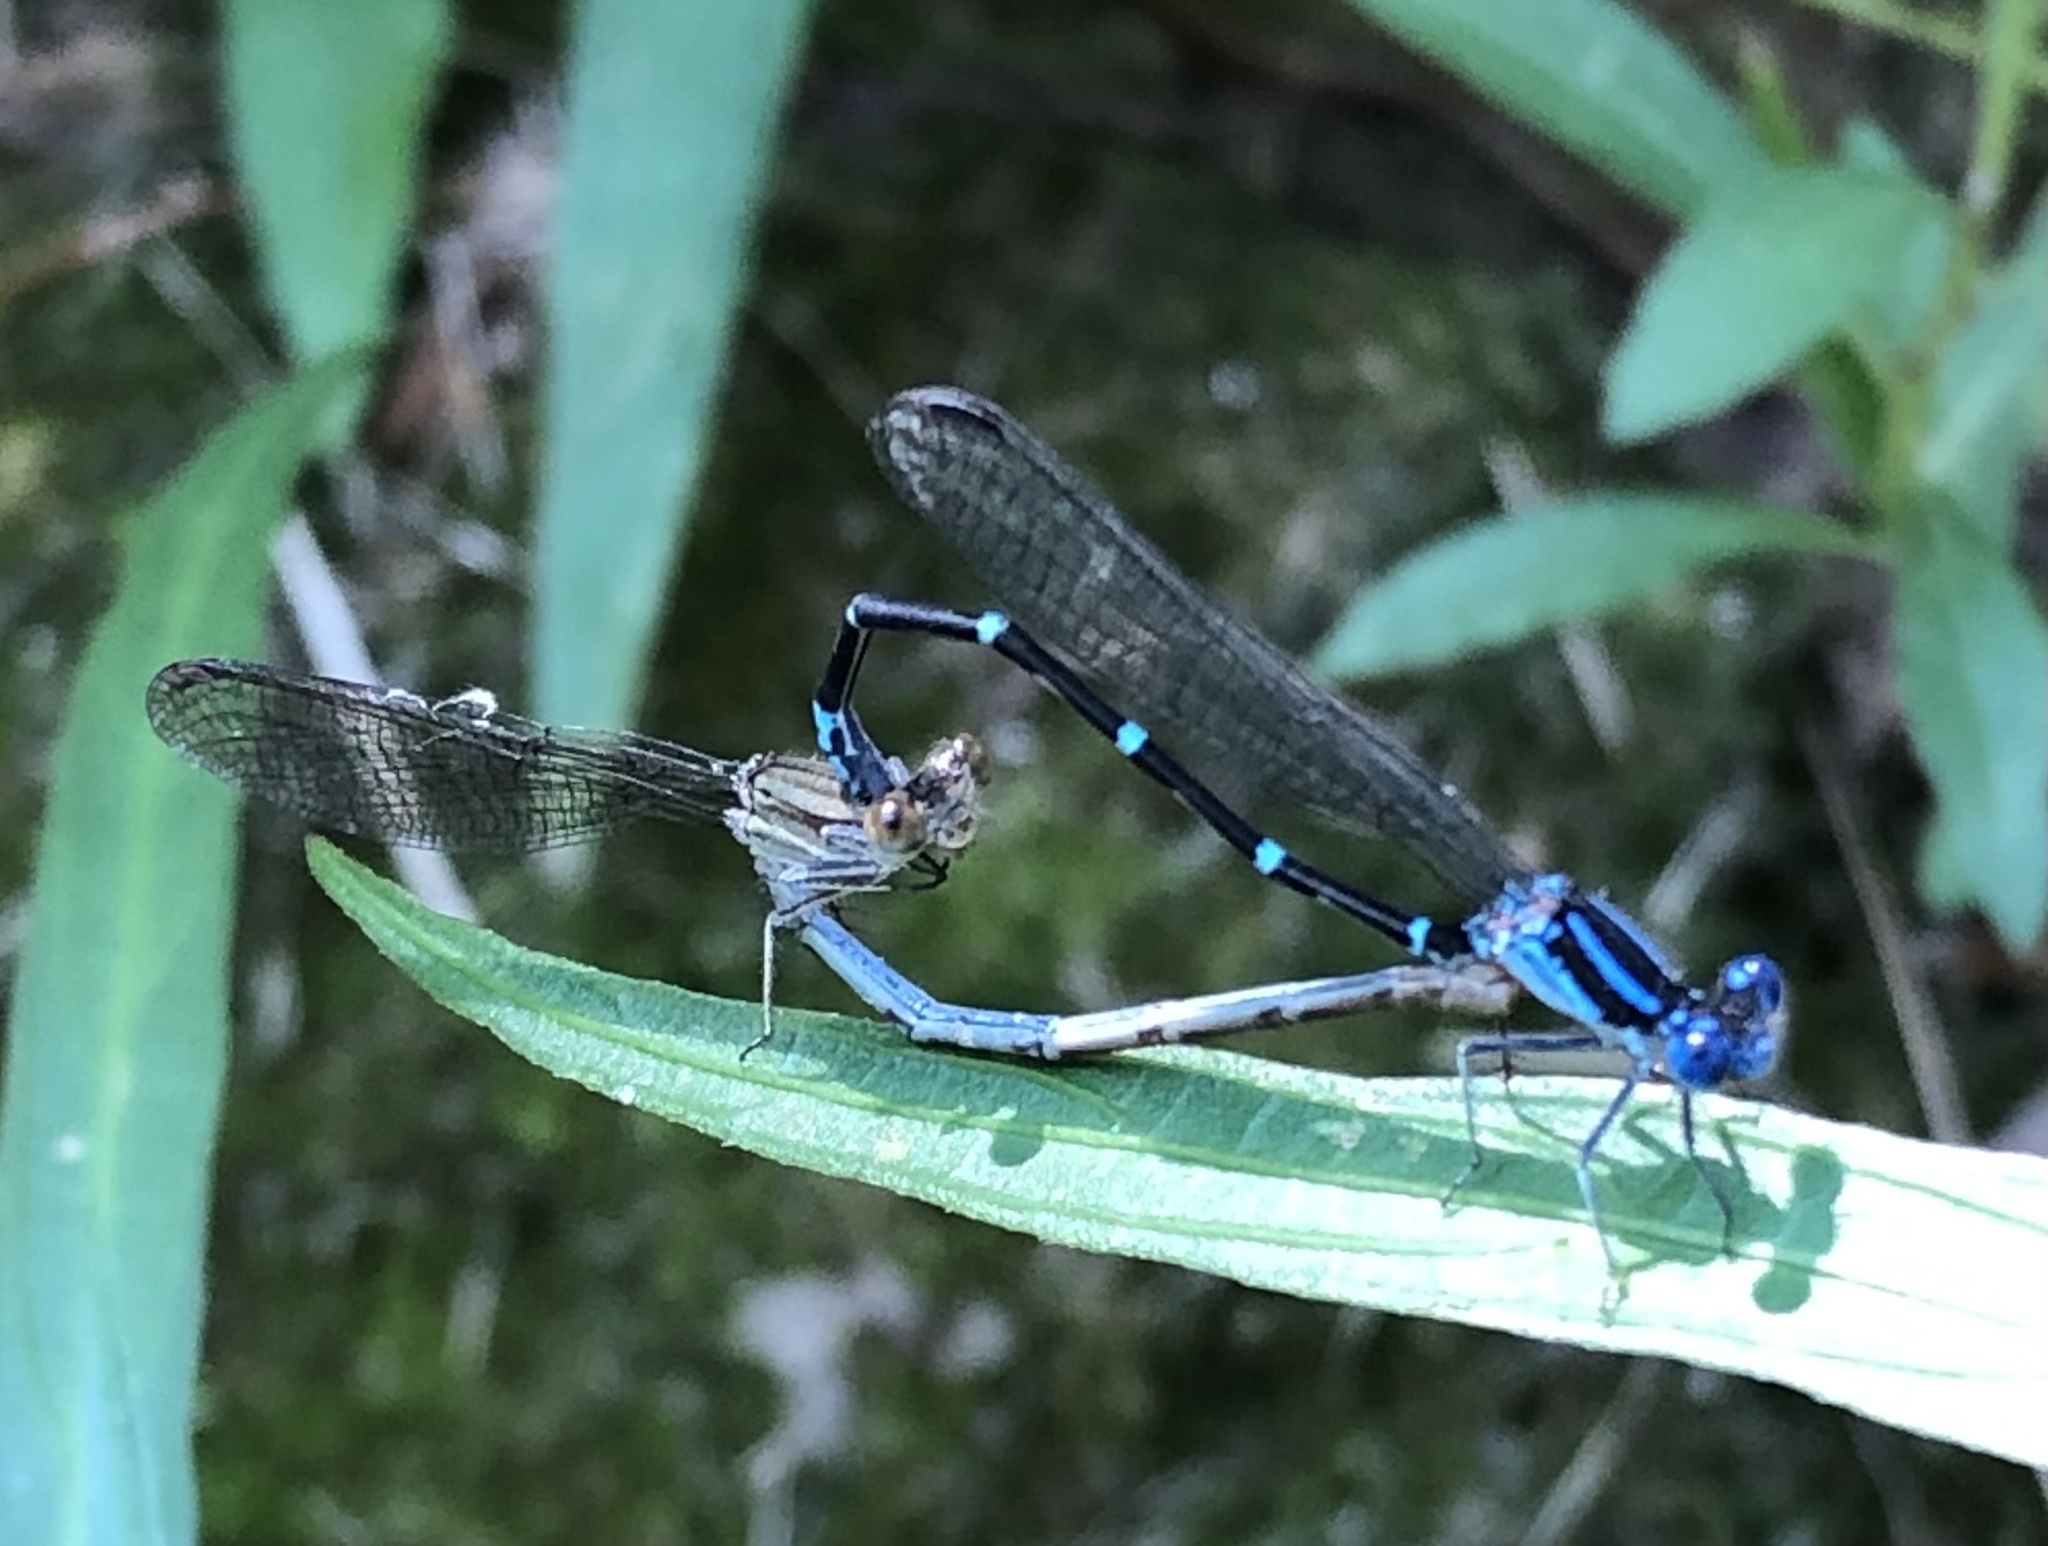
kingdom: Animalia
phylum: Arthropoda
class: Insecta
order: Odonata
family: Coenagrionidae
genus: Argia
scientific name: Argia sedula
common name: Blue-ringed dancer
